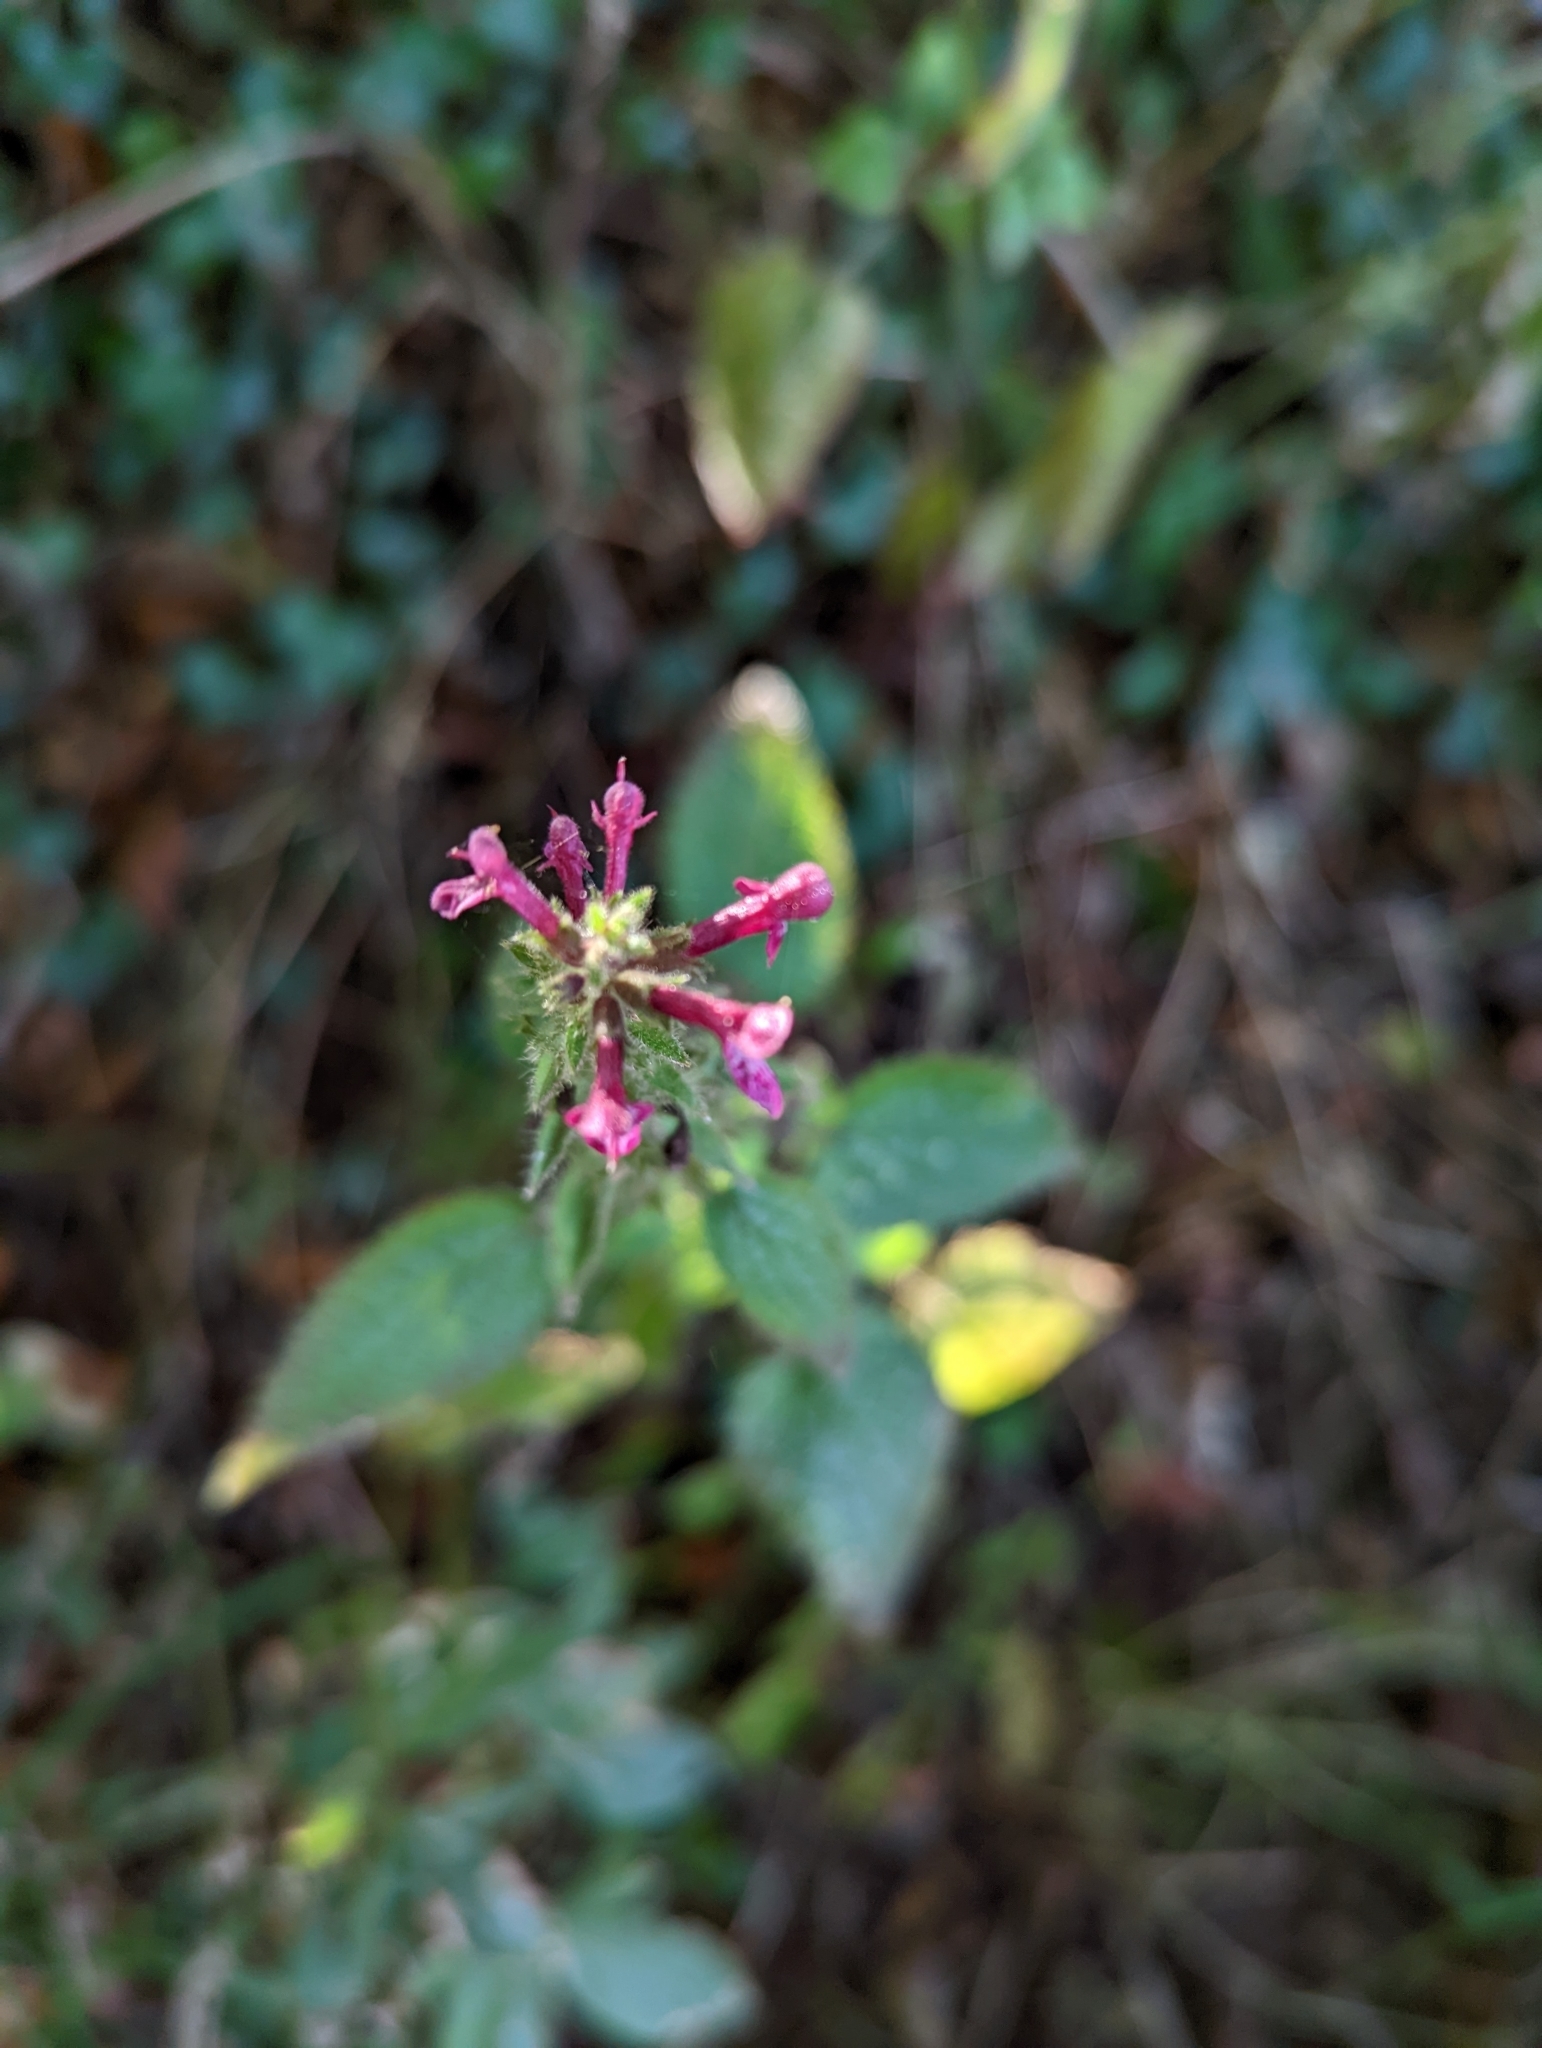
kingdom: Plantae
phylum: Tracheophyta
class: Magnoliopsida
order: Lamiales
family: Lamiaceae
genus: Stachys
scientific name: Stachys sylvatica
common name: Hedge woundwort
